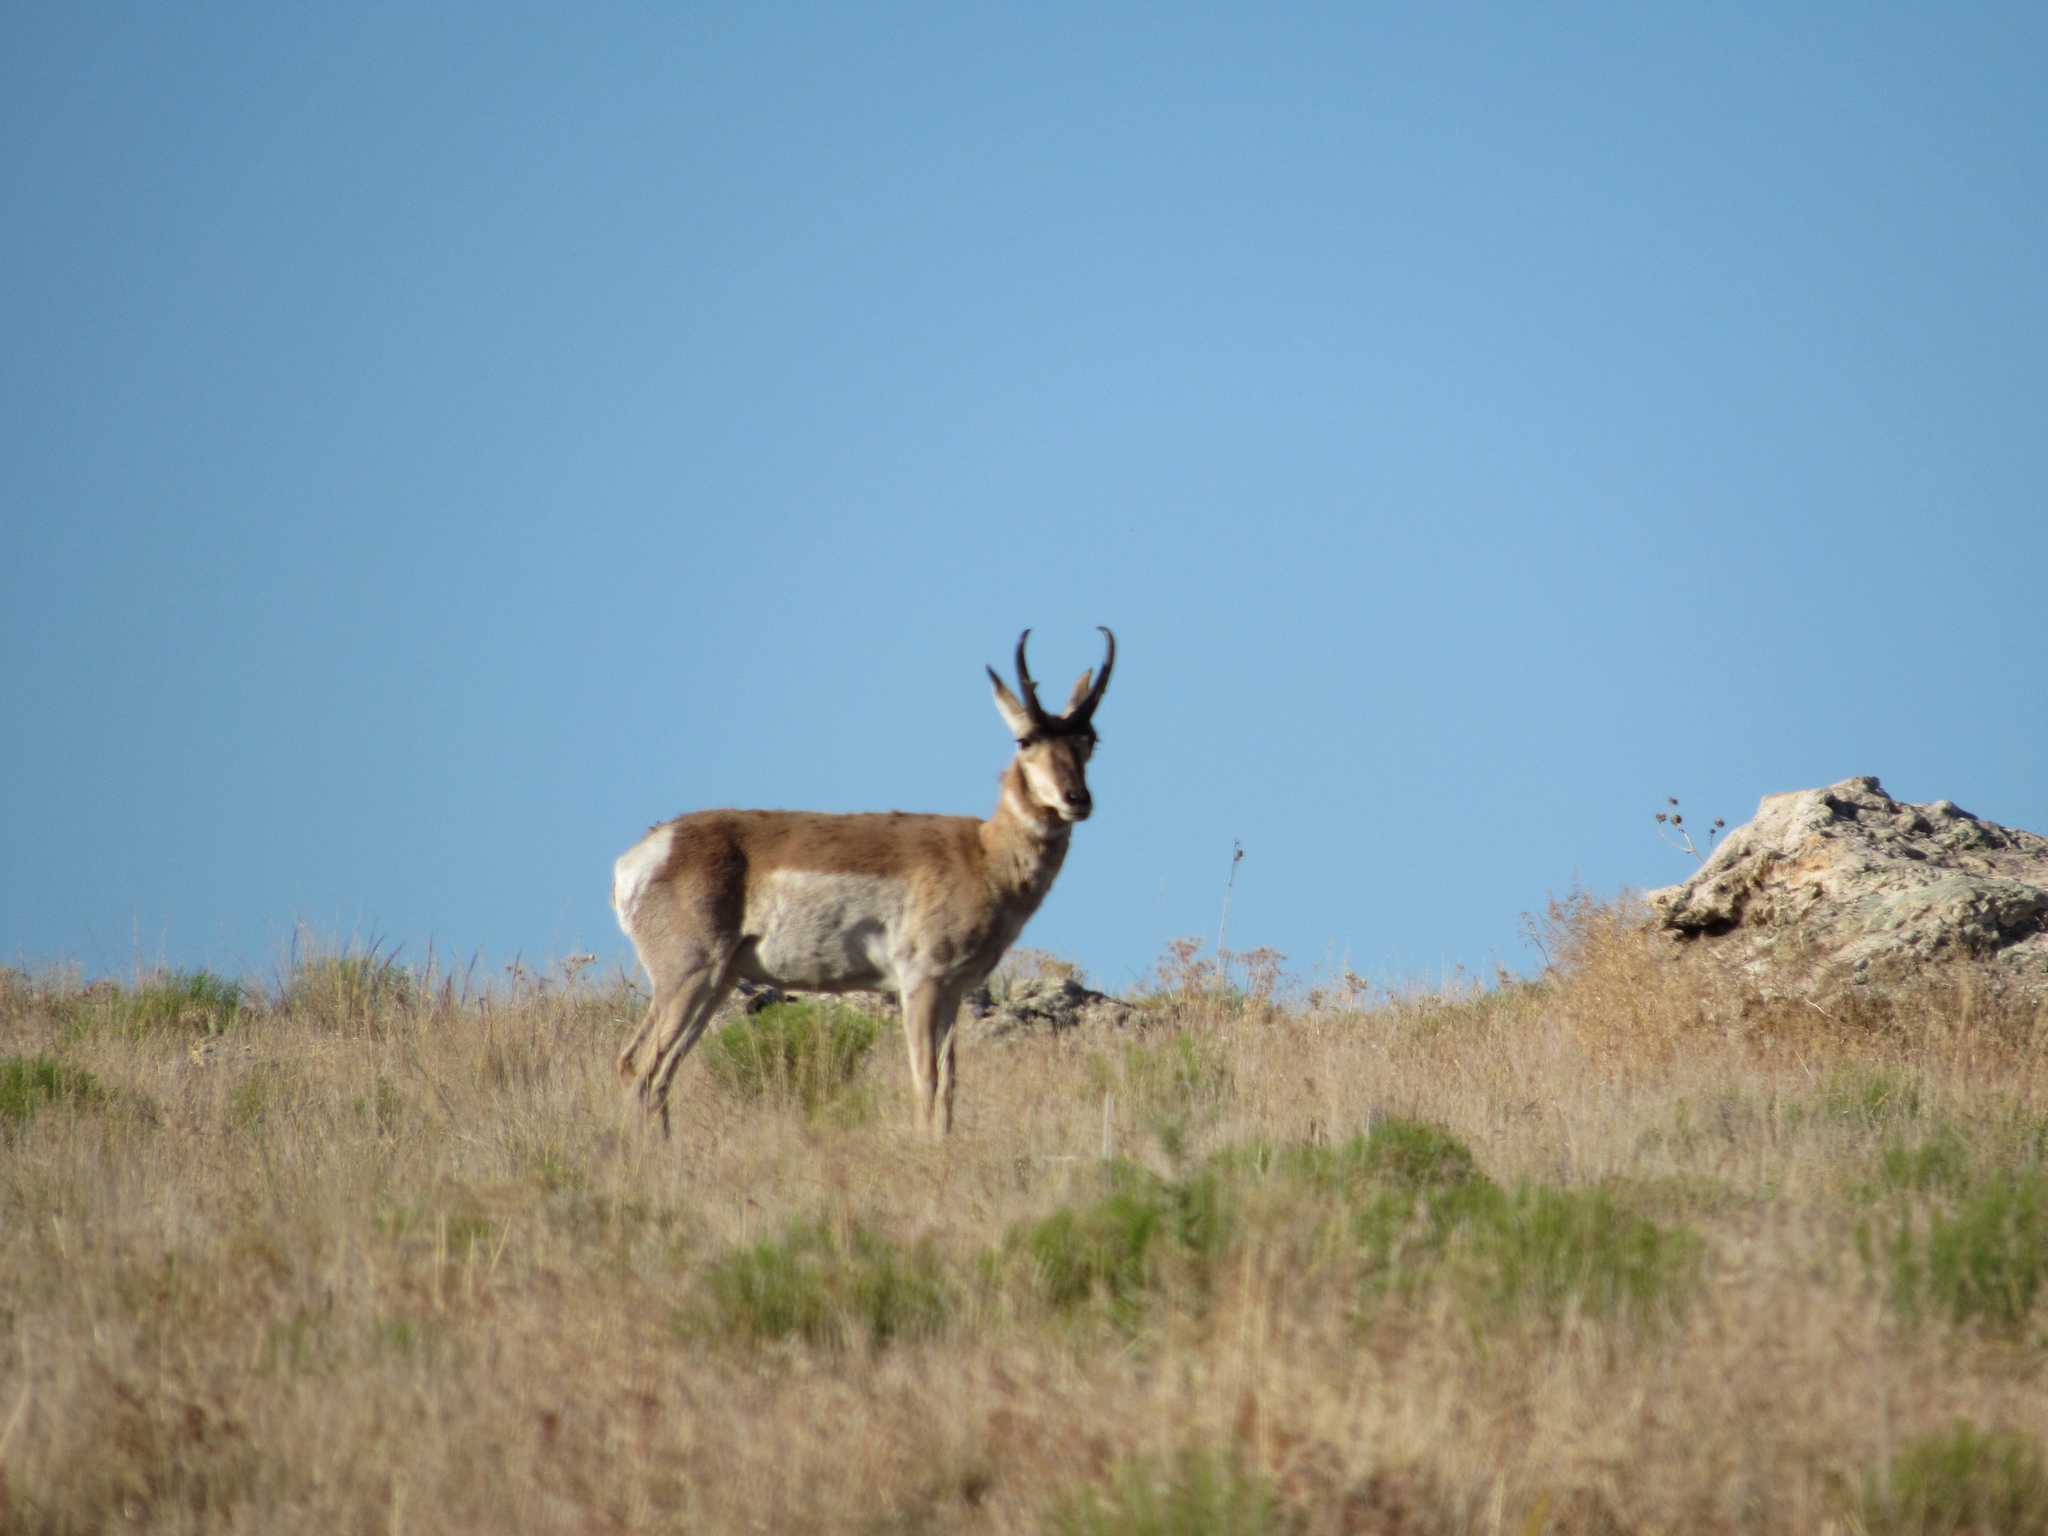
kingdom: Animalia
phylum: Chordata
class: Mammalia
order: Artiodactyla
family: Antilocapridae
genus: Antilocapra
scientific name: Antilocapra americana
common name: Pronghorn
